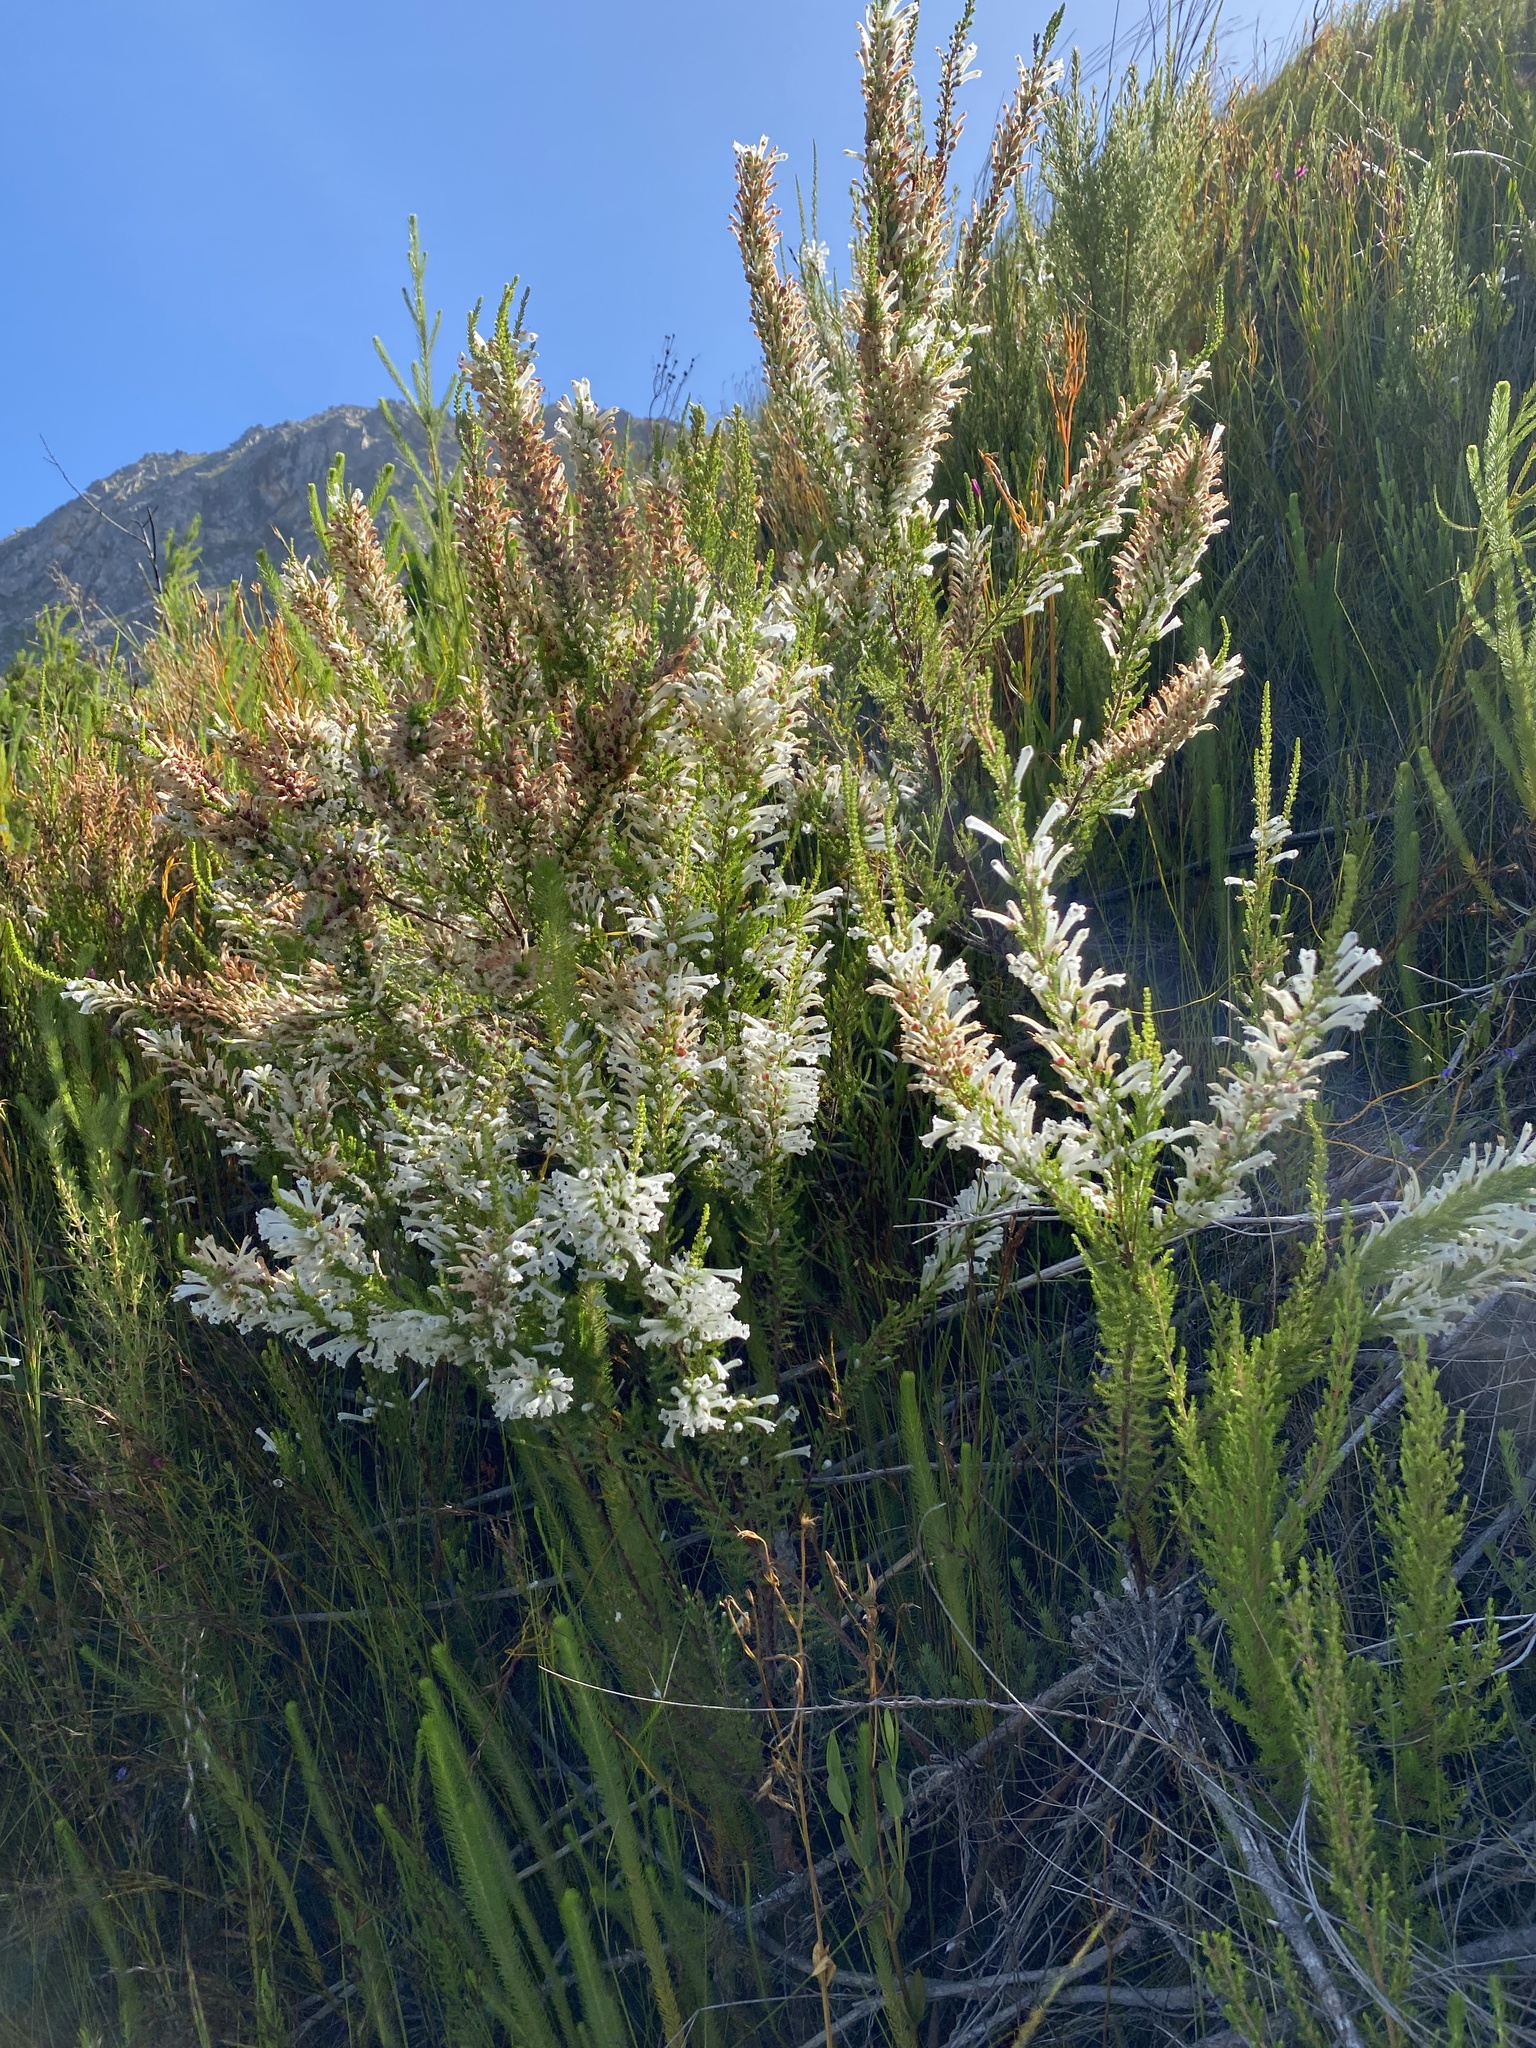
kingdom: Plantae
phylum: Tracheophyta
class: Magnoliopsida
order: Ericales
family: Ericaceae
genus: Erica
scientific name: Erica perspicua
